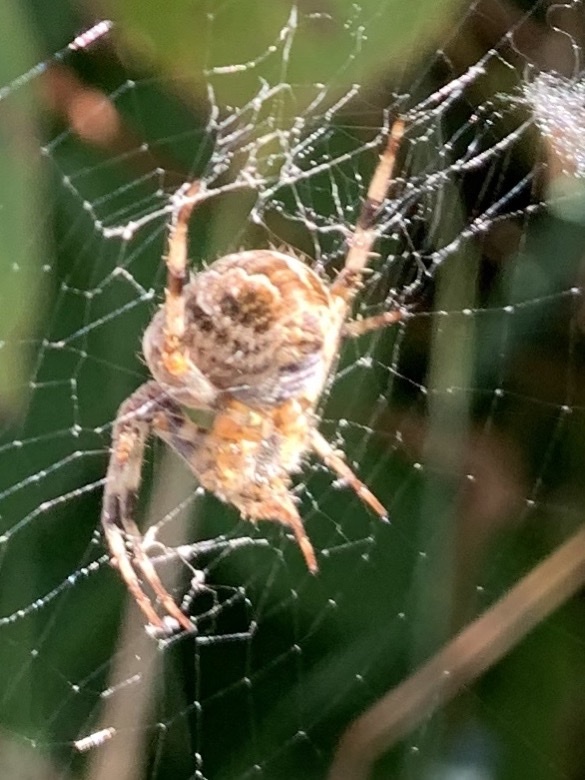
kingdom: Animalia
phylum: Arthropoda
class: Arachnida
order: Araneae
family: Araneidae
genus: Araneus
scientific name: Araneus diadematus
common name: Cross orbweaver
